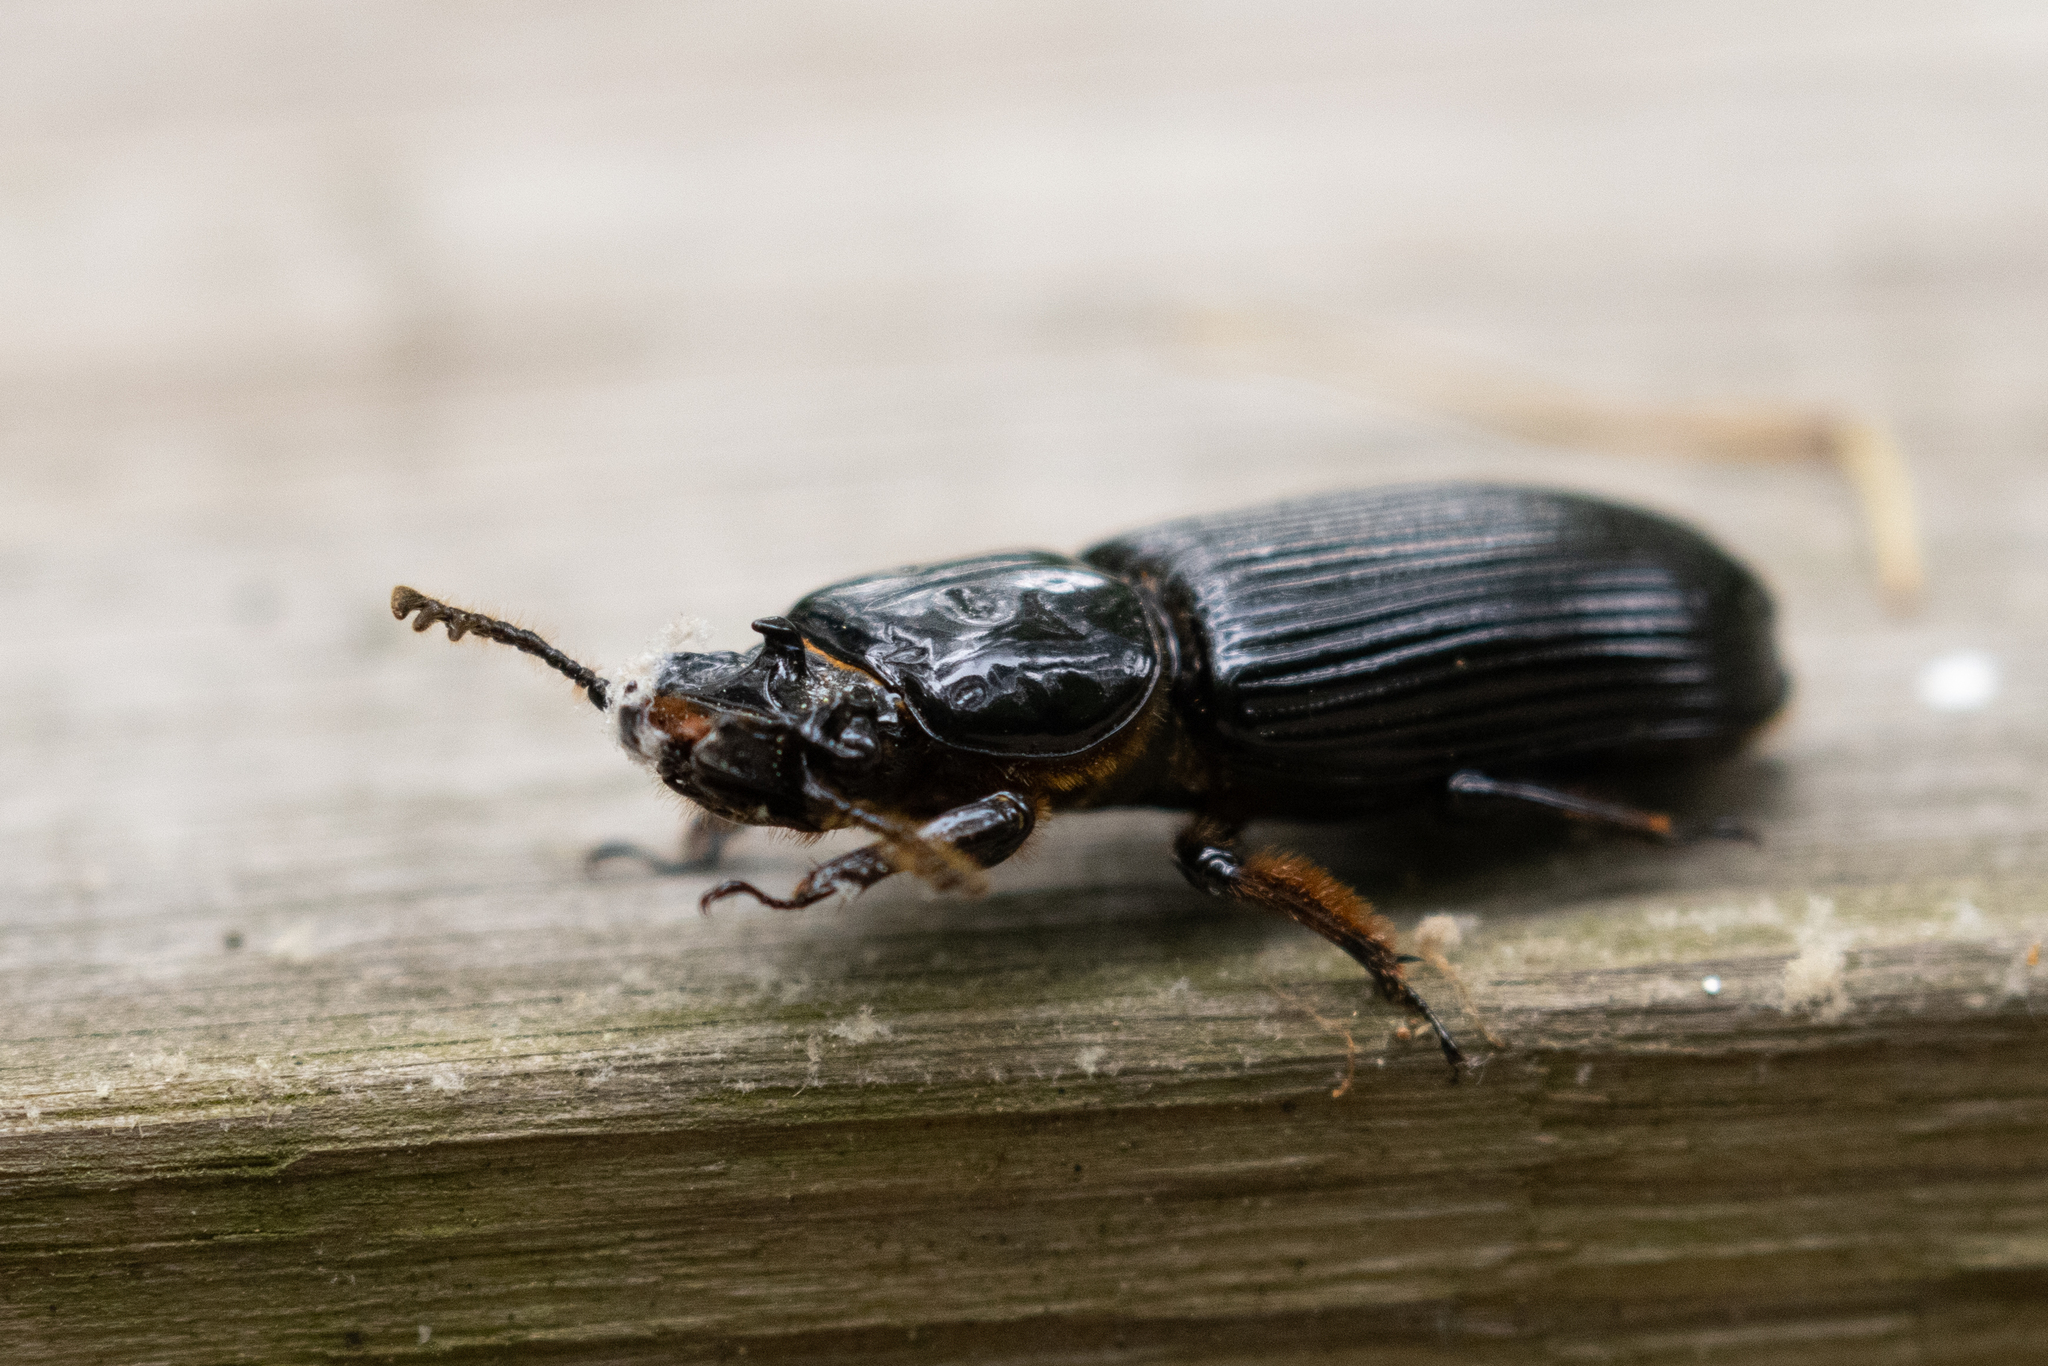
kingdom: Animalia
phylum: Arthropoda
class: Insecta
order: Coleoptera
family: Passalidae
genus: Odontotaenius
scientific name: Odontotaenius disjunctus
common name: Patent leather beetle
